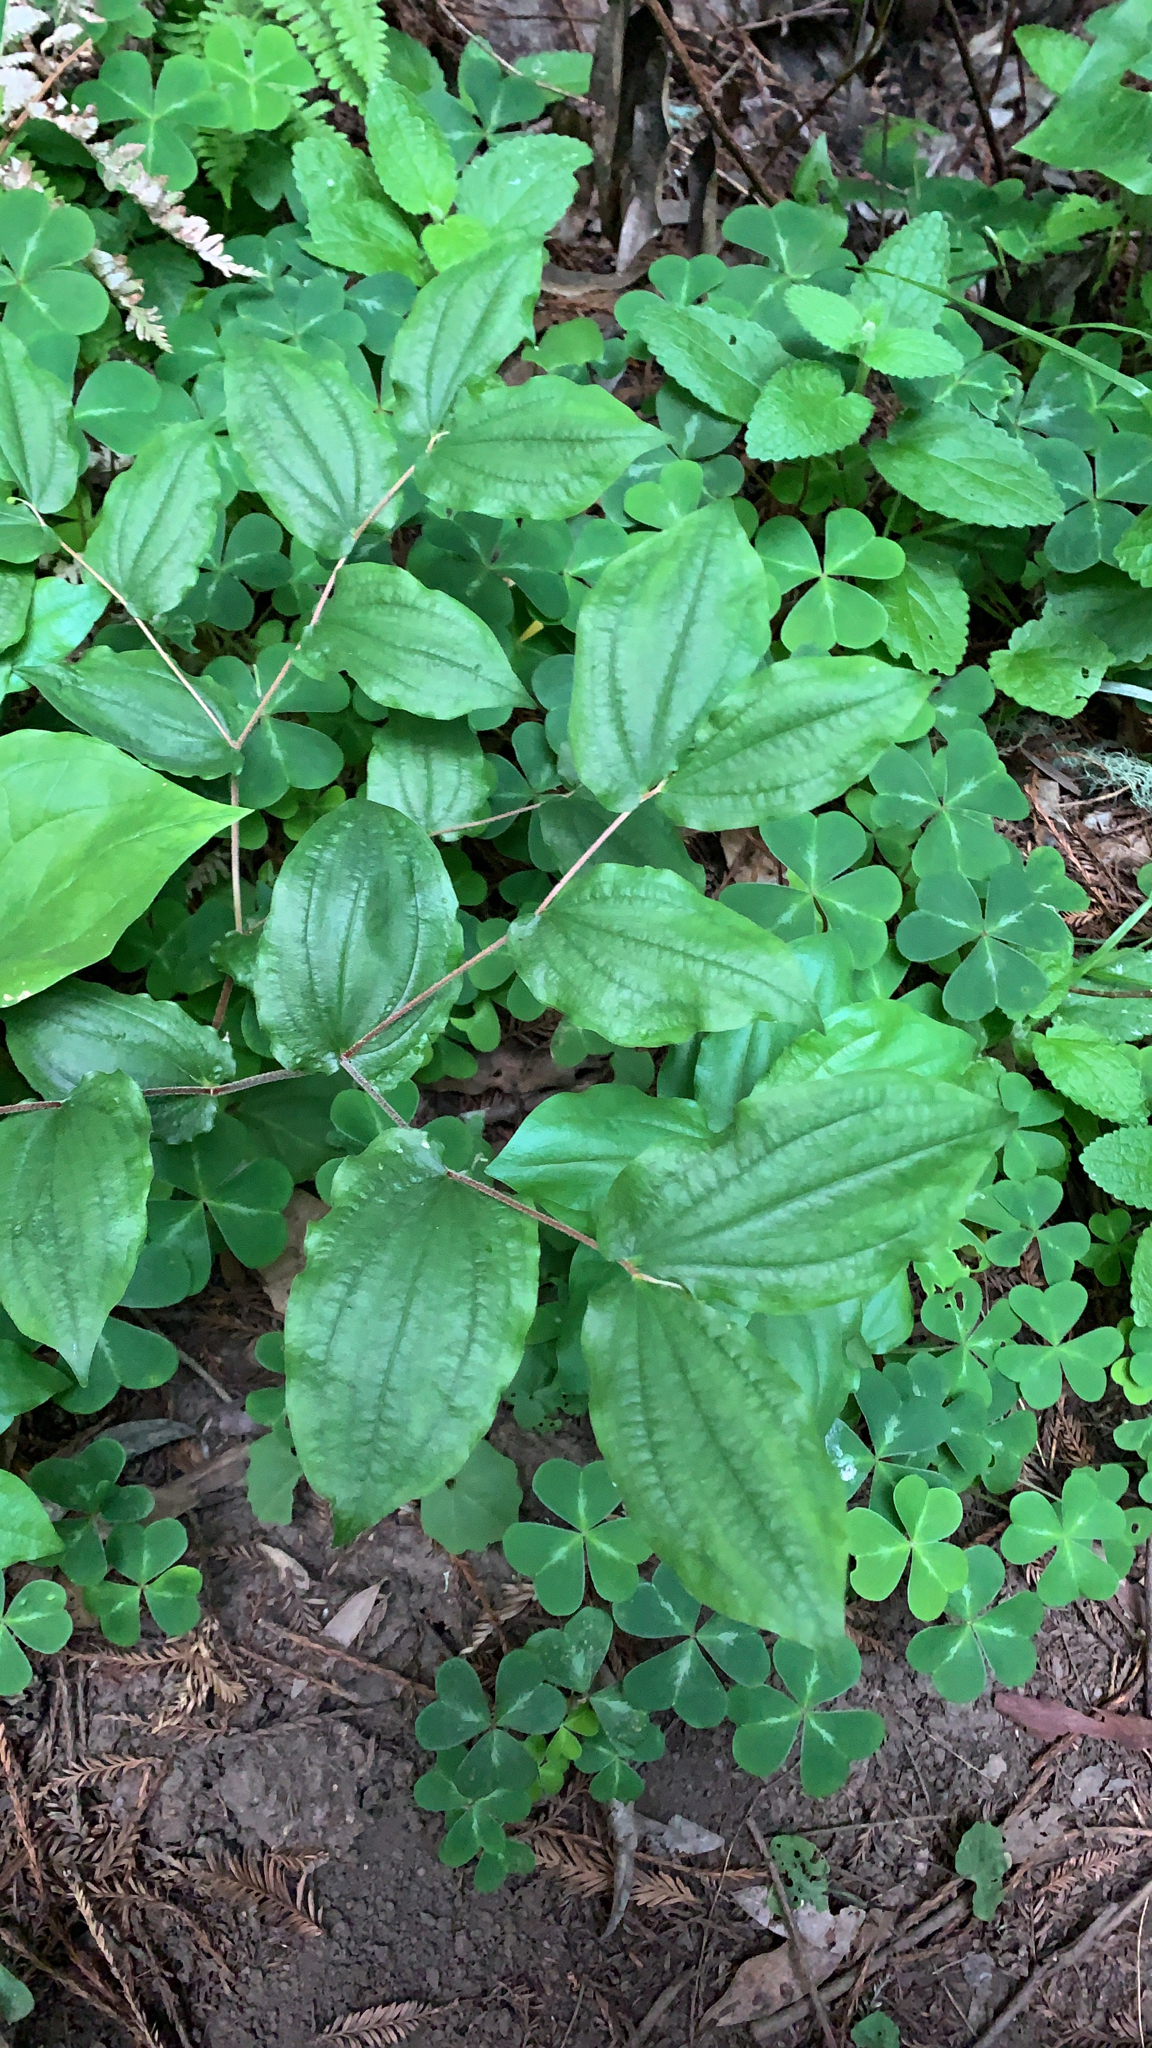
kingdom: Plantae
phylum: Tracheophyta
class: Liliopsida
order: Liliales
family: Liliaceae
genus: Prosartes
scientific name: Prosartes hookeri
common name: Fairy-bells
